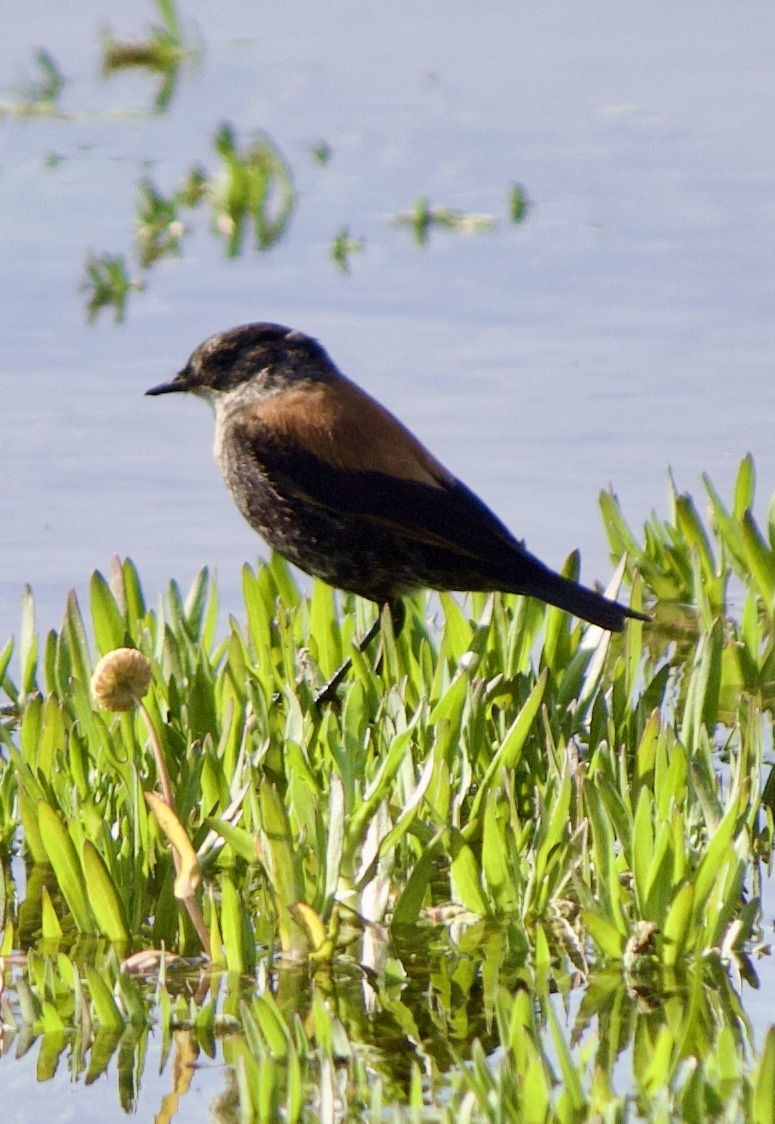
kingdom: Animalia
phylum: Chordata
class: Aves
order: Passeriformes
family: Tyrannidae
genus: Lessonia
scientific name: Lessonia rufa
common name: Austral negrito
